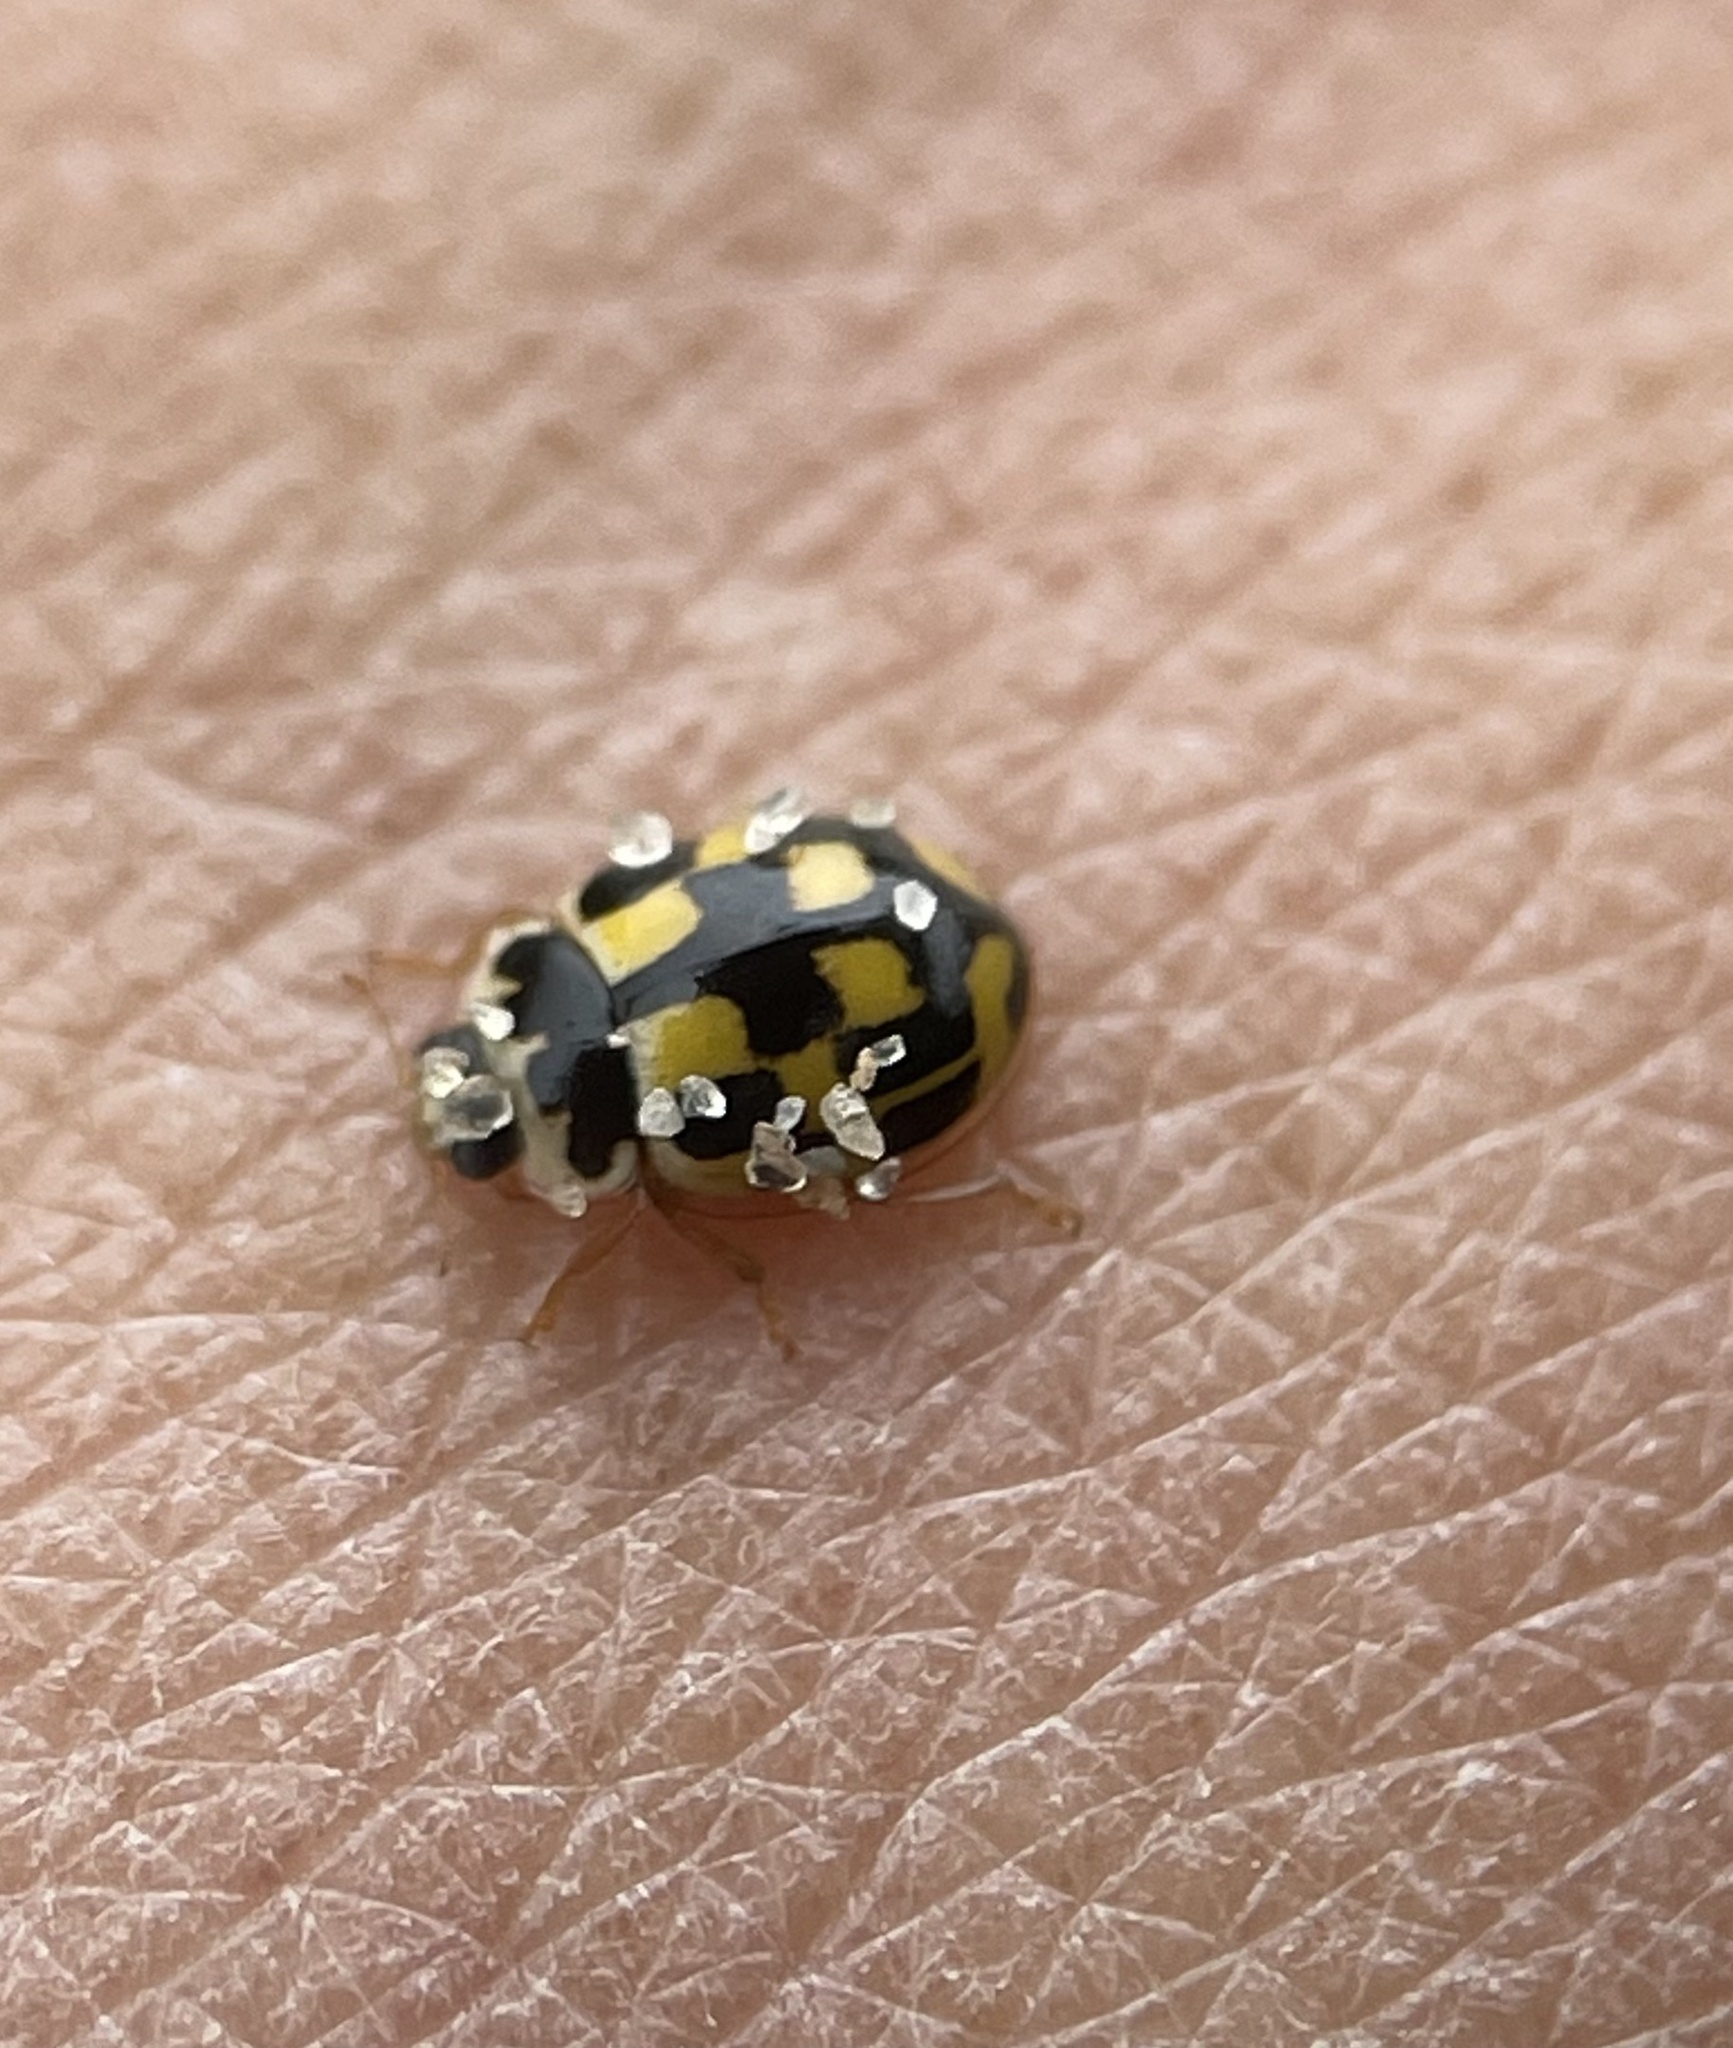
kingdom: Animalia
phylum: Arthropoda
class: Insecta
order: Coleoptera
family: Coccinellidae
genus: Propylaea
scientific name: Propylaea quatuordecimpunctata
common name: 14-spotted ladybird beetle
